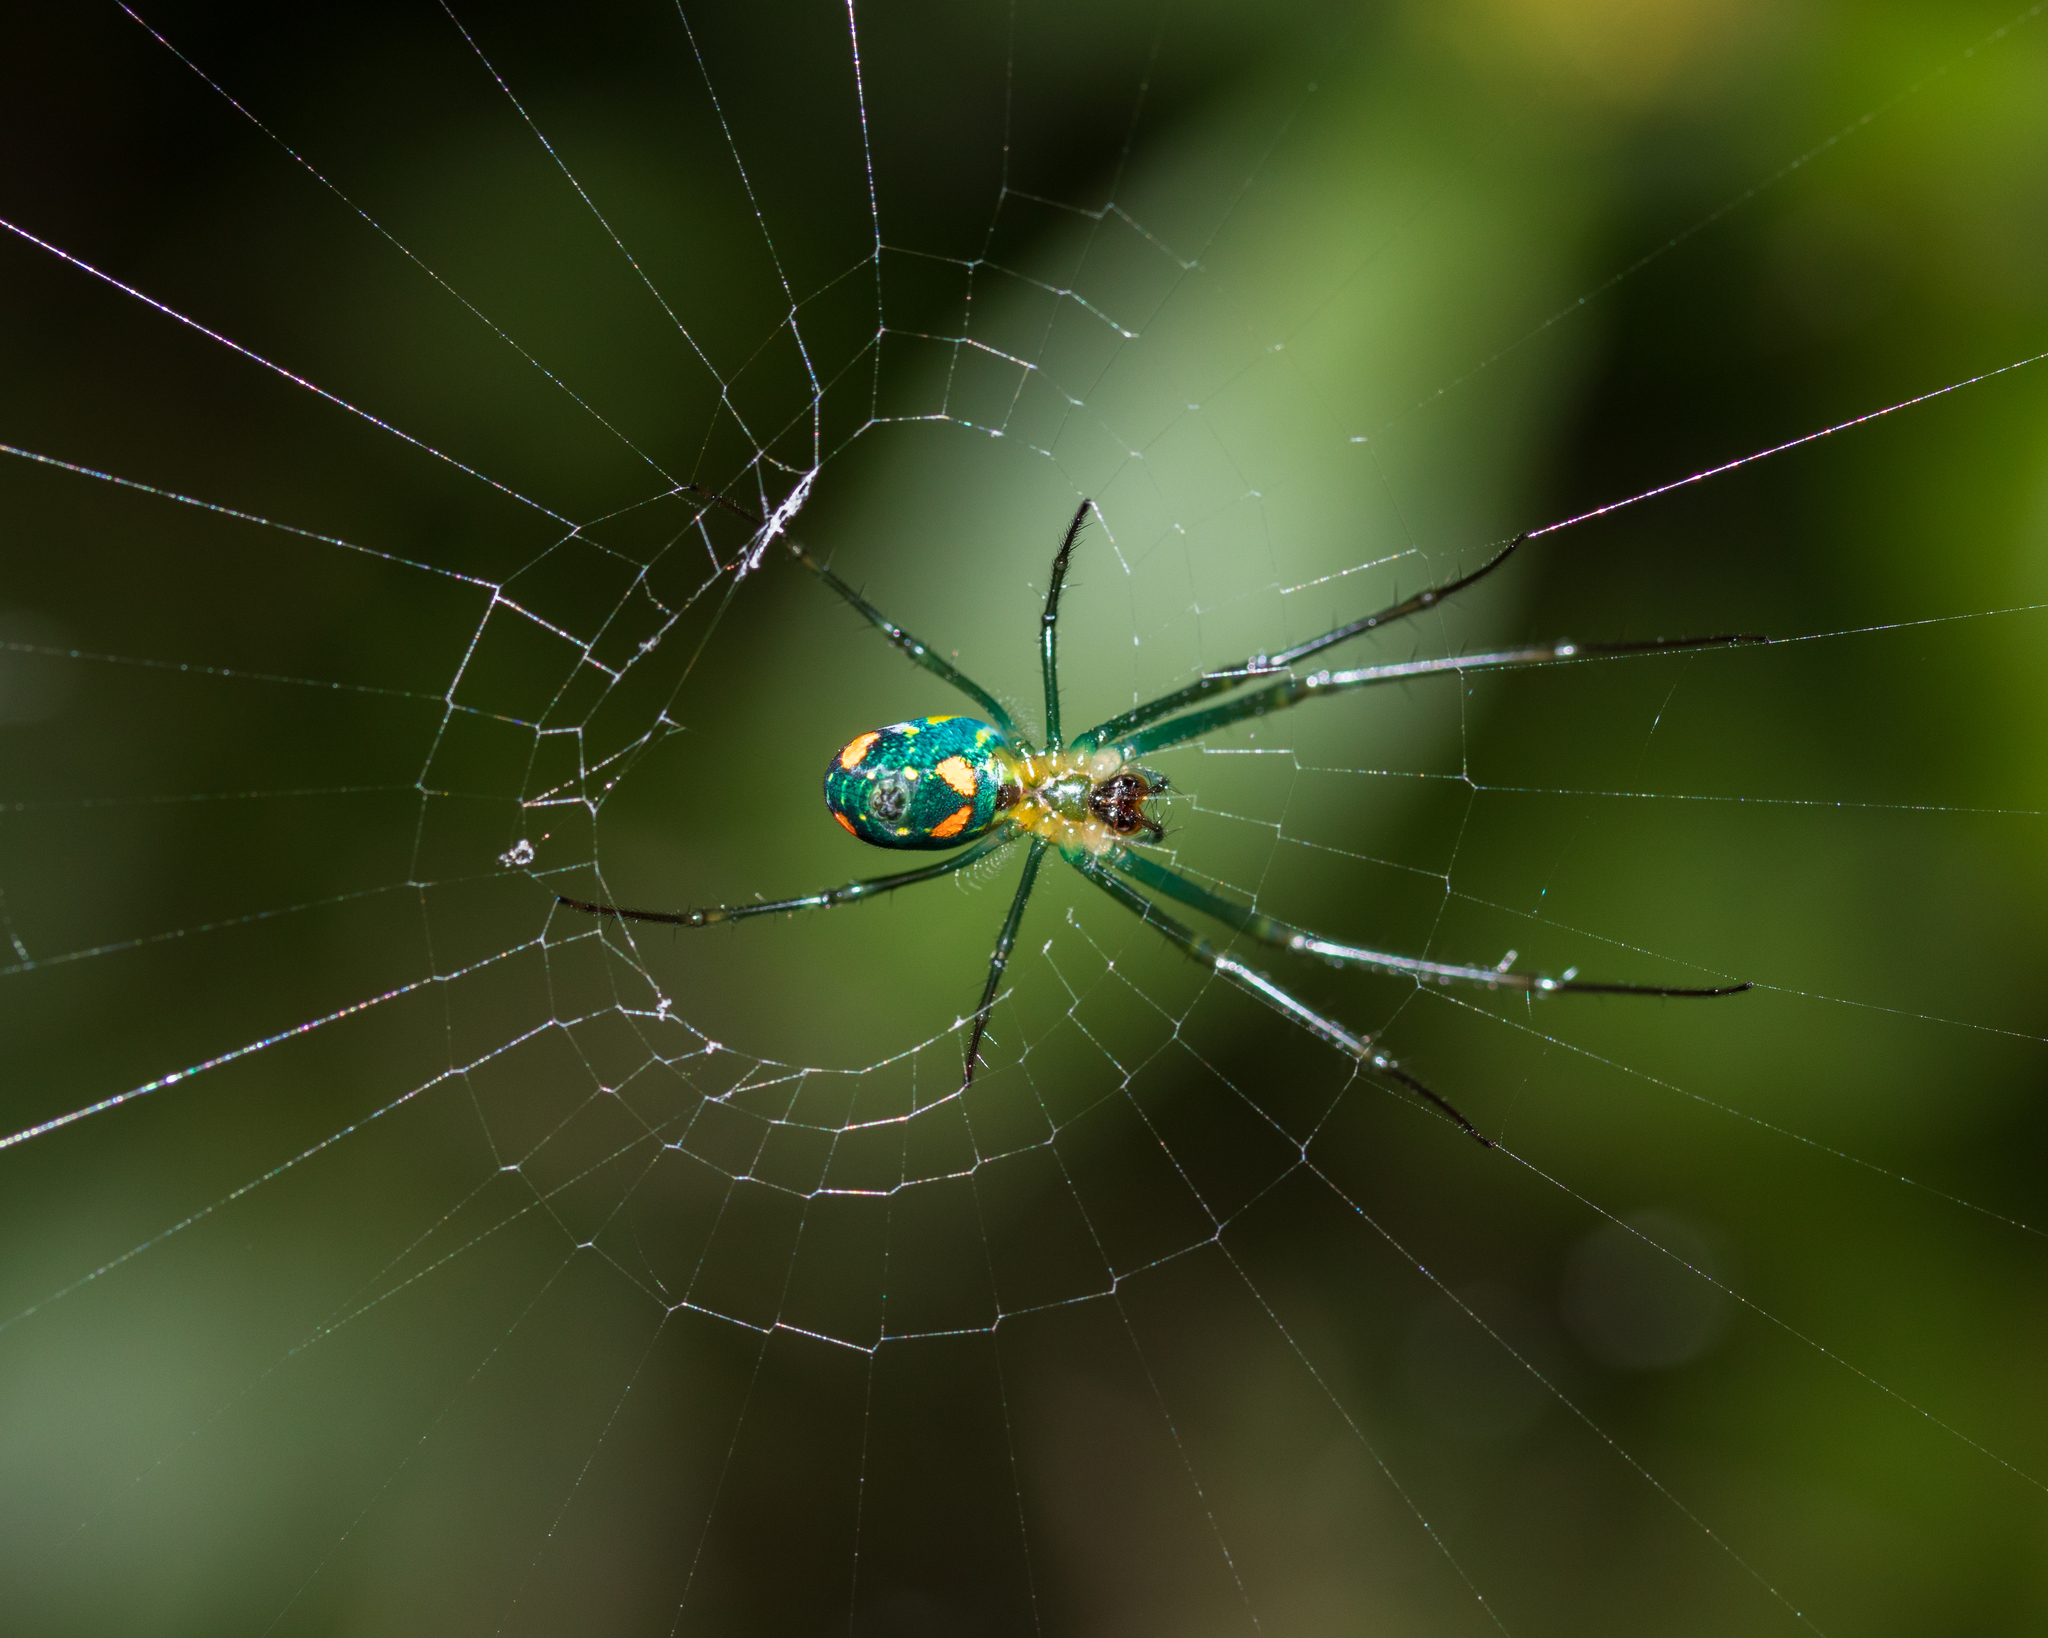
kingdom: Animalia
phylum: Arthropoda
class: Arachnida
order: Araneae
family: Tetragnathidae
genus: Leucauge
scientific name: Leucauge argyrobapta
